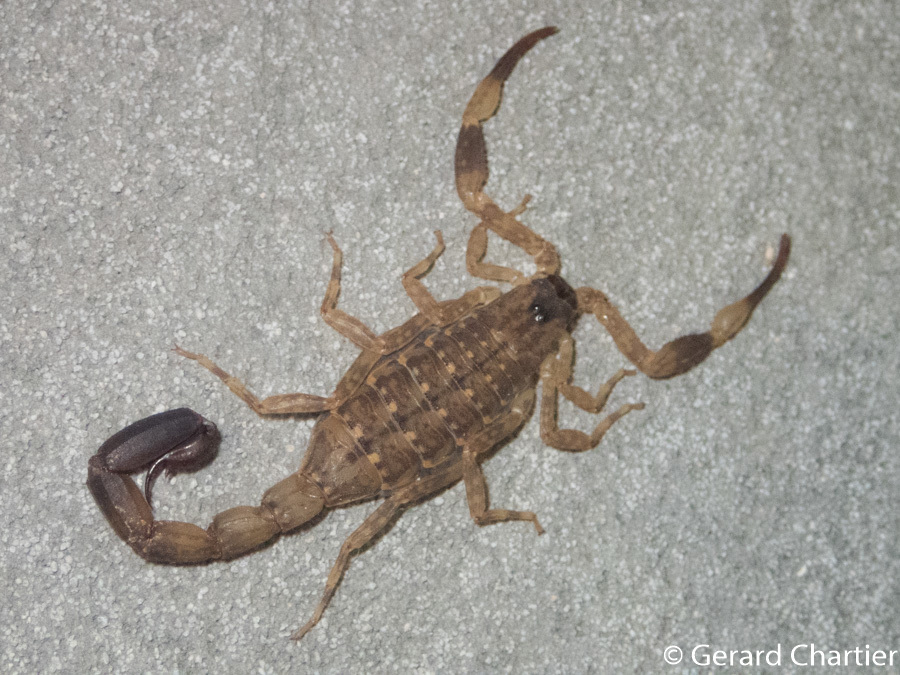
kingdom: Animalia
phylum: Arthropoda
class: Arachnida
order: Scorpiones
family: Buthidae
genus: Lychas
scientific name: Lychas mucronatus
